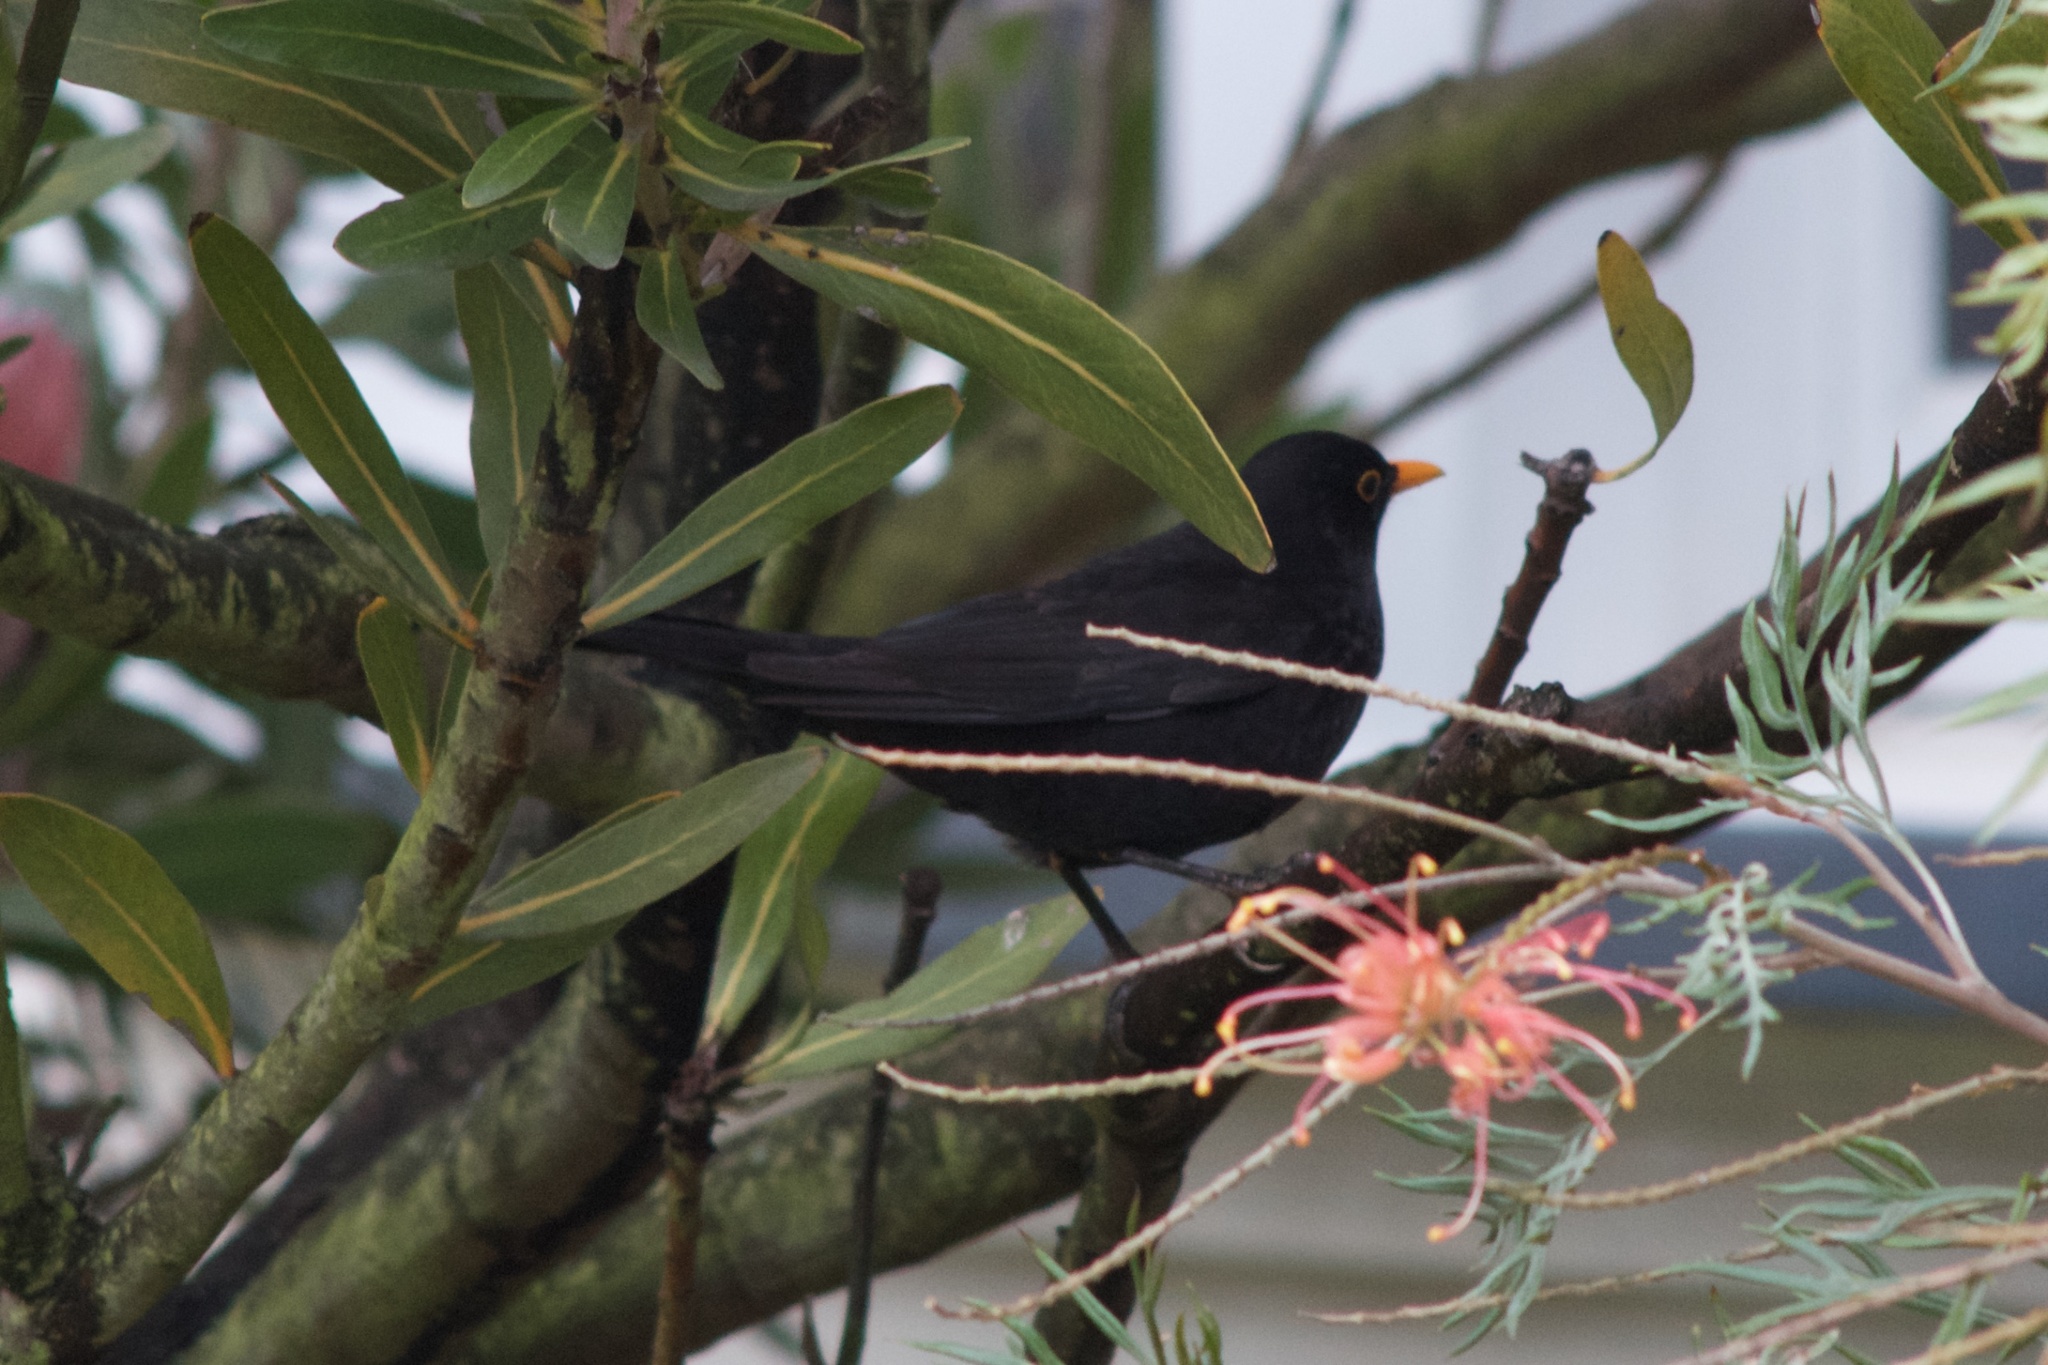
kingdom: Animalia
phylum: Chordata
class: Aves
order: Passeriformes
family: Turdidae
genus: Turdus
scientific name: Turdus merula
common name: Common blackbird
